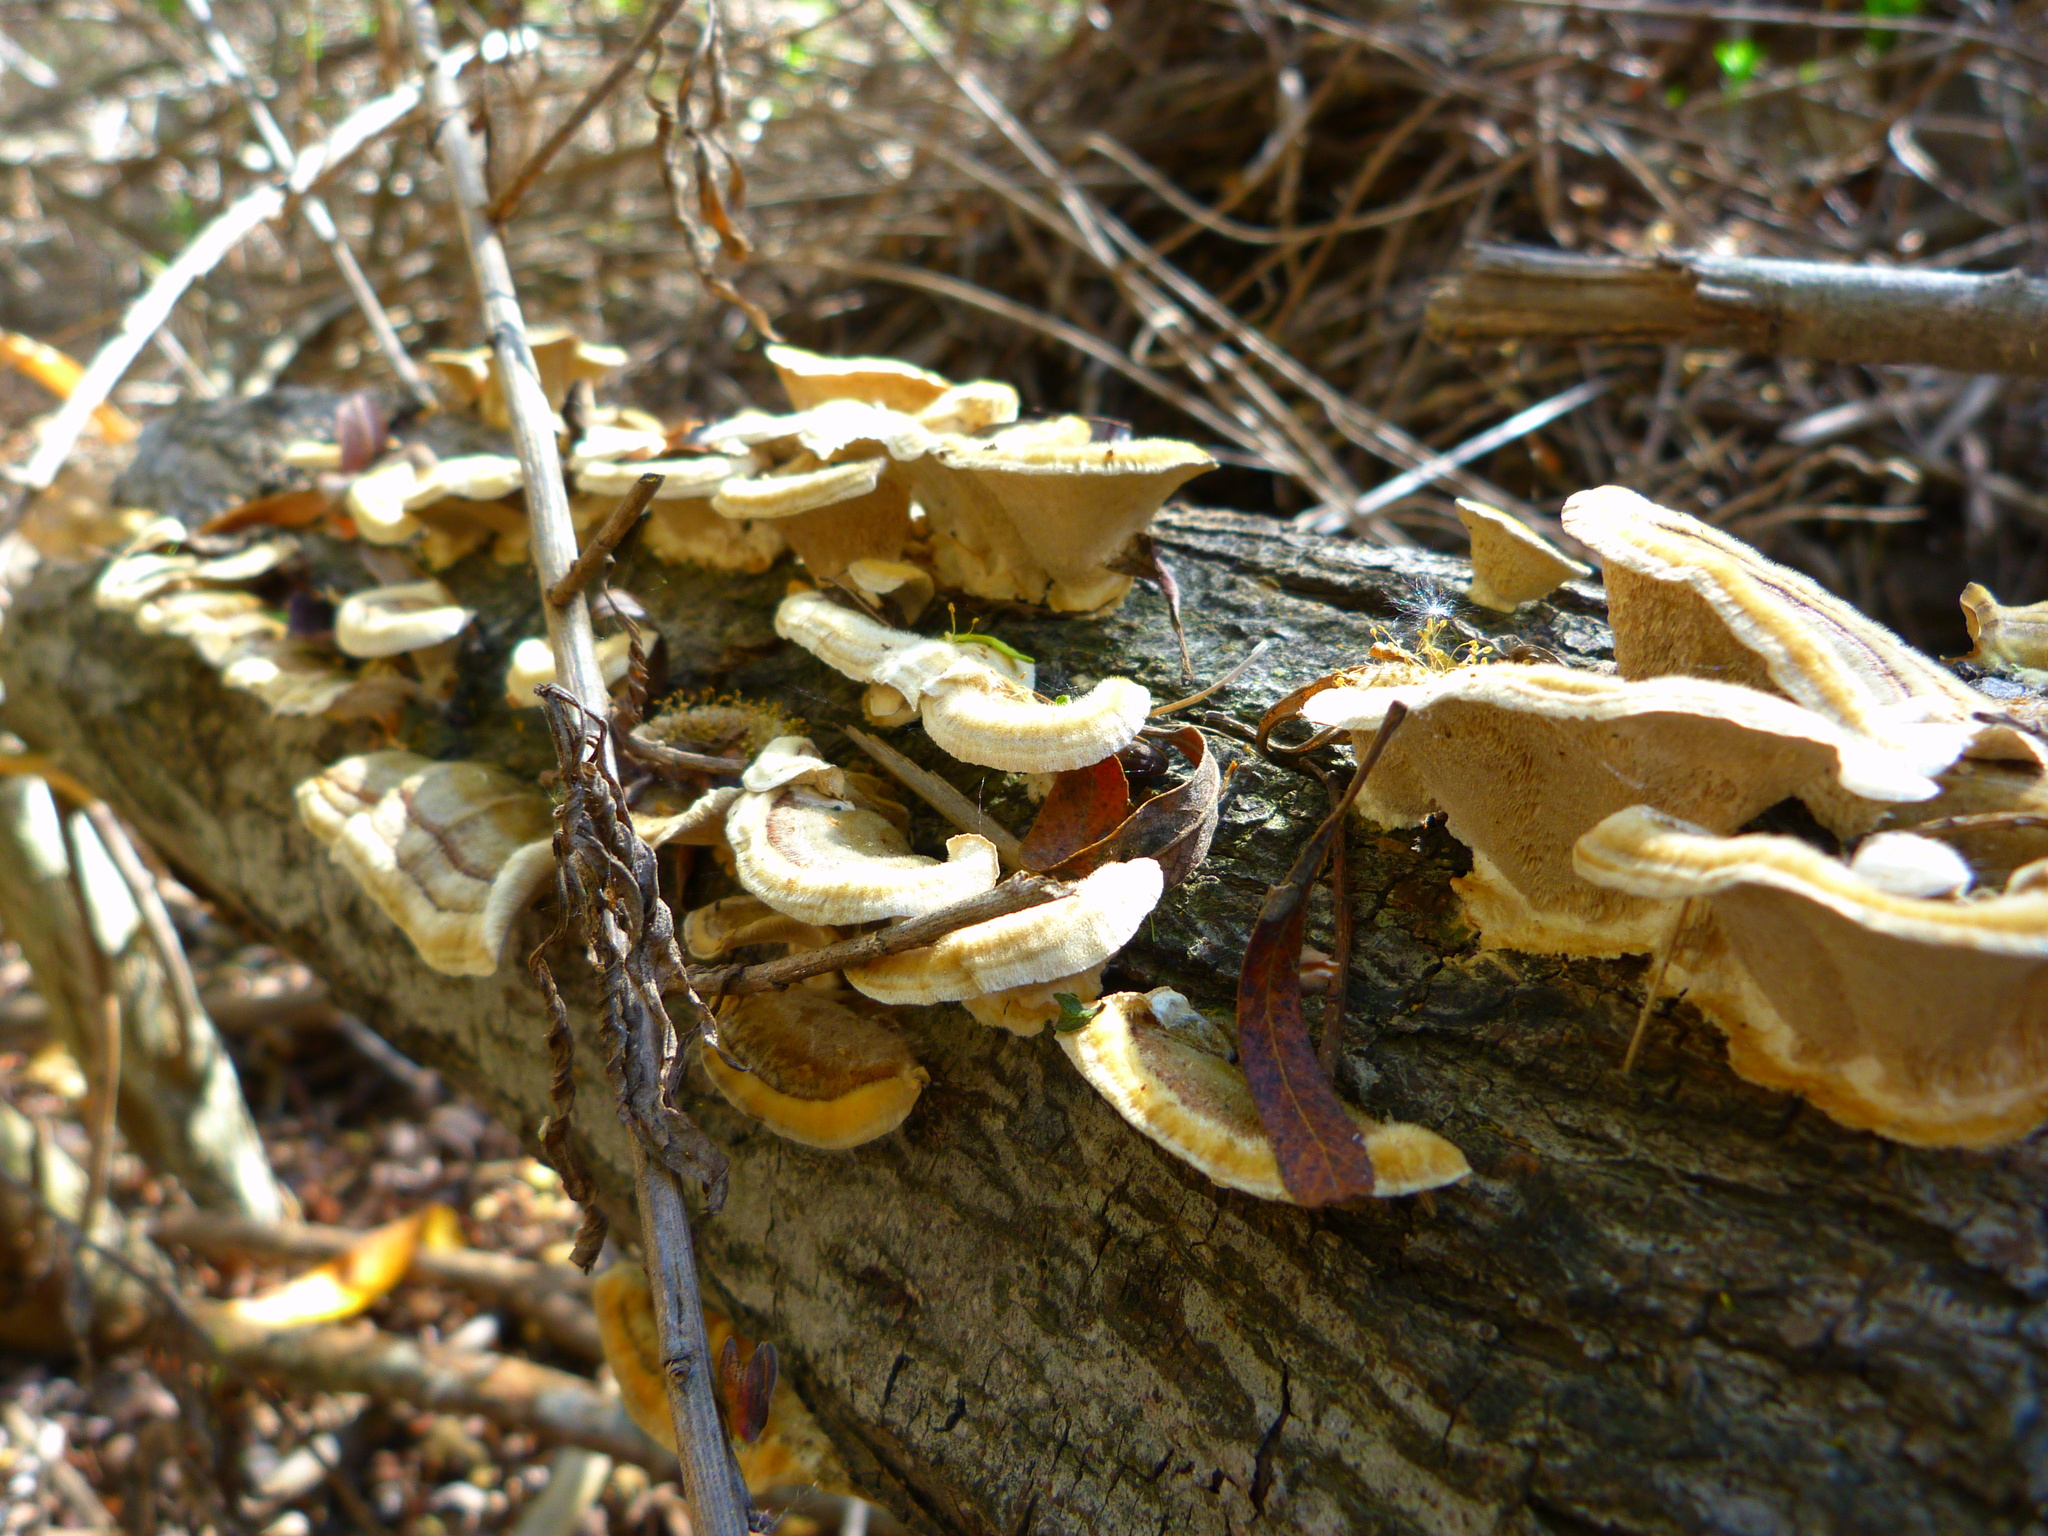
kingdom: Fungi
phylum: Basidiomycota
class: Agaricomycetes
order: Polyporales
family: Polyporaceae
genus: Trametes
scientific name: Trametes versicolor
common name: Turkeytail
